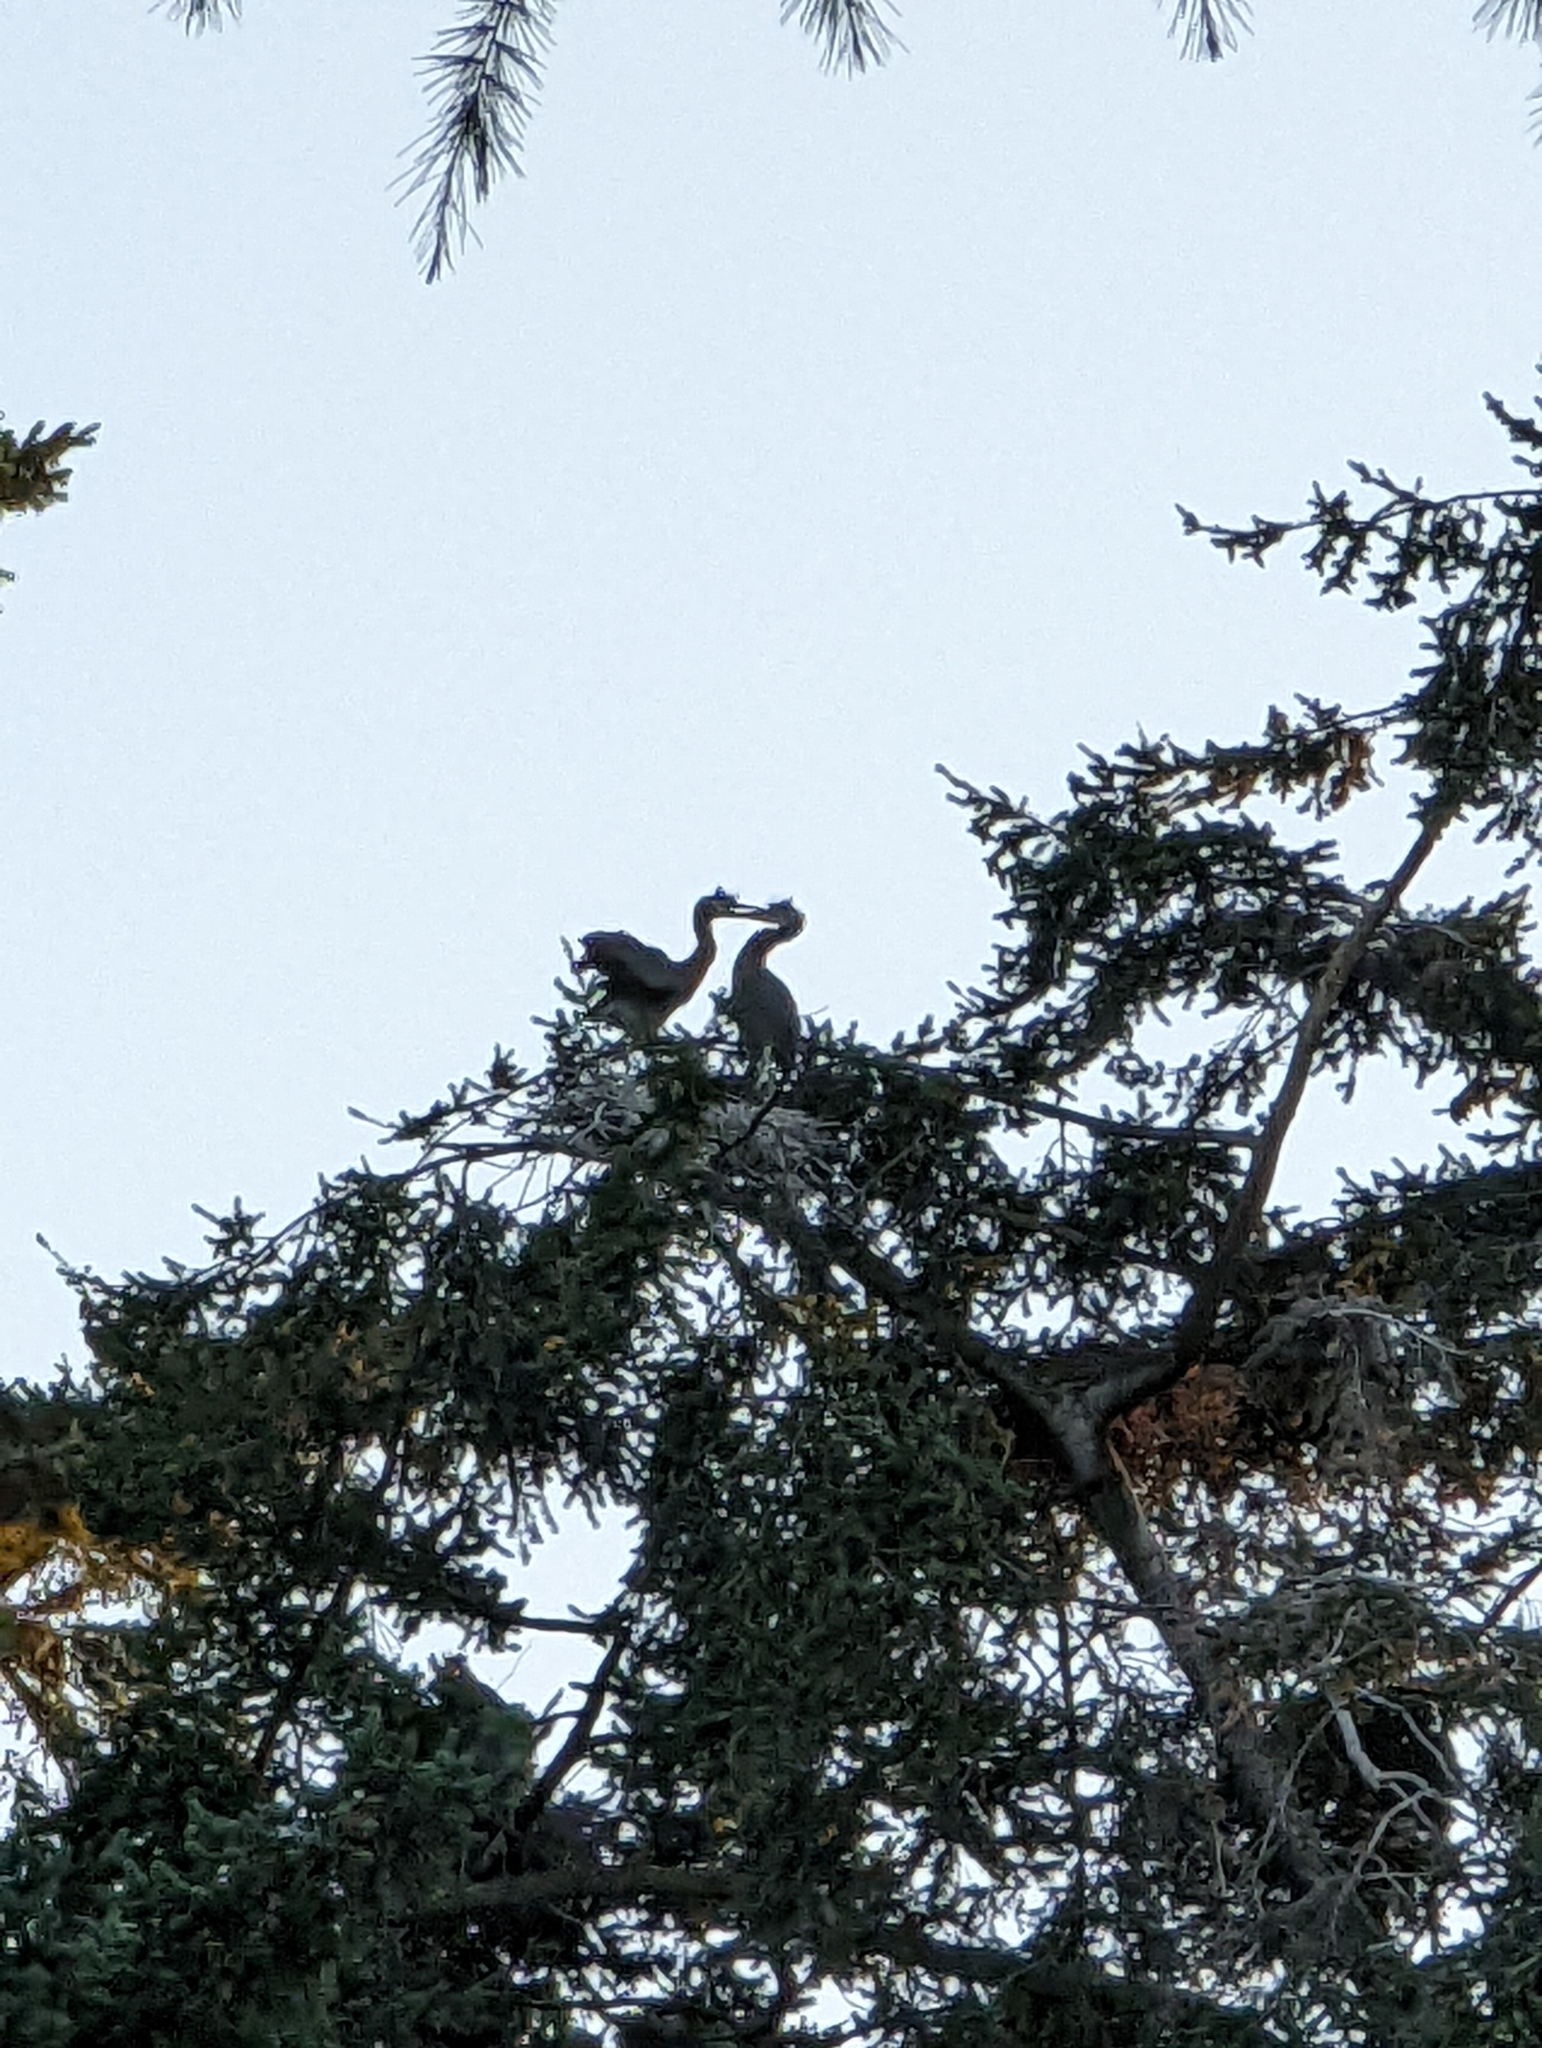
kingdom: Animalia
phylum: Chordata
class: Aves
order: Pelecaniformes
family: Ardeidae
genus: Ardea
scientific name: Ardea herodias
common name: Great blue heron
